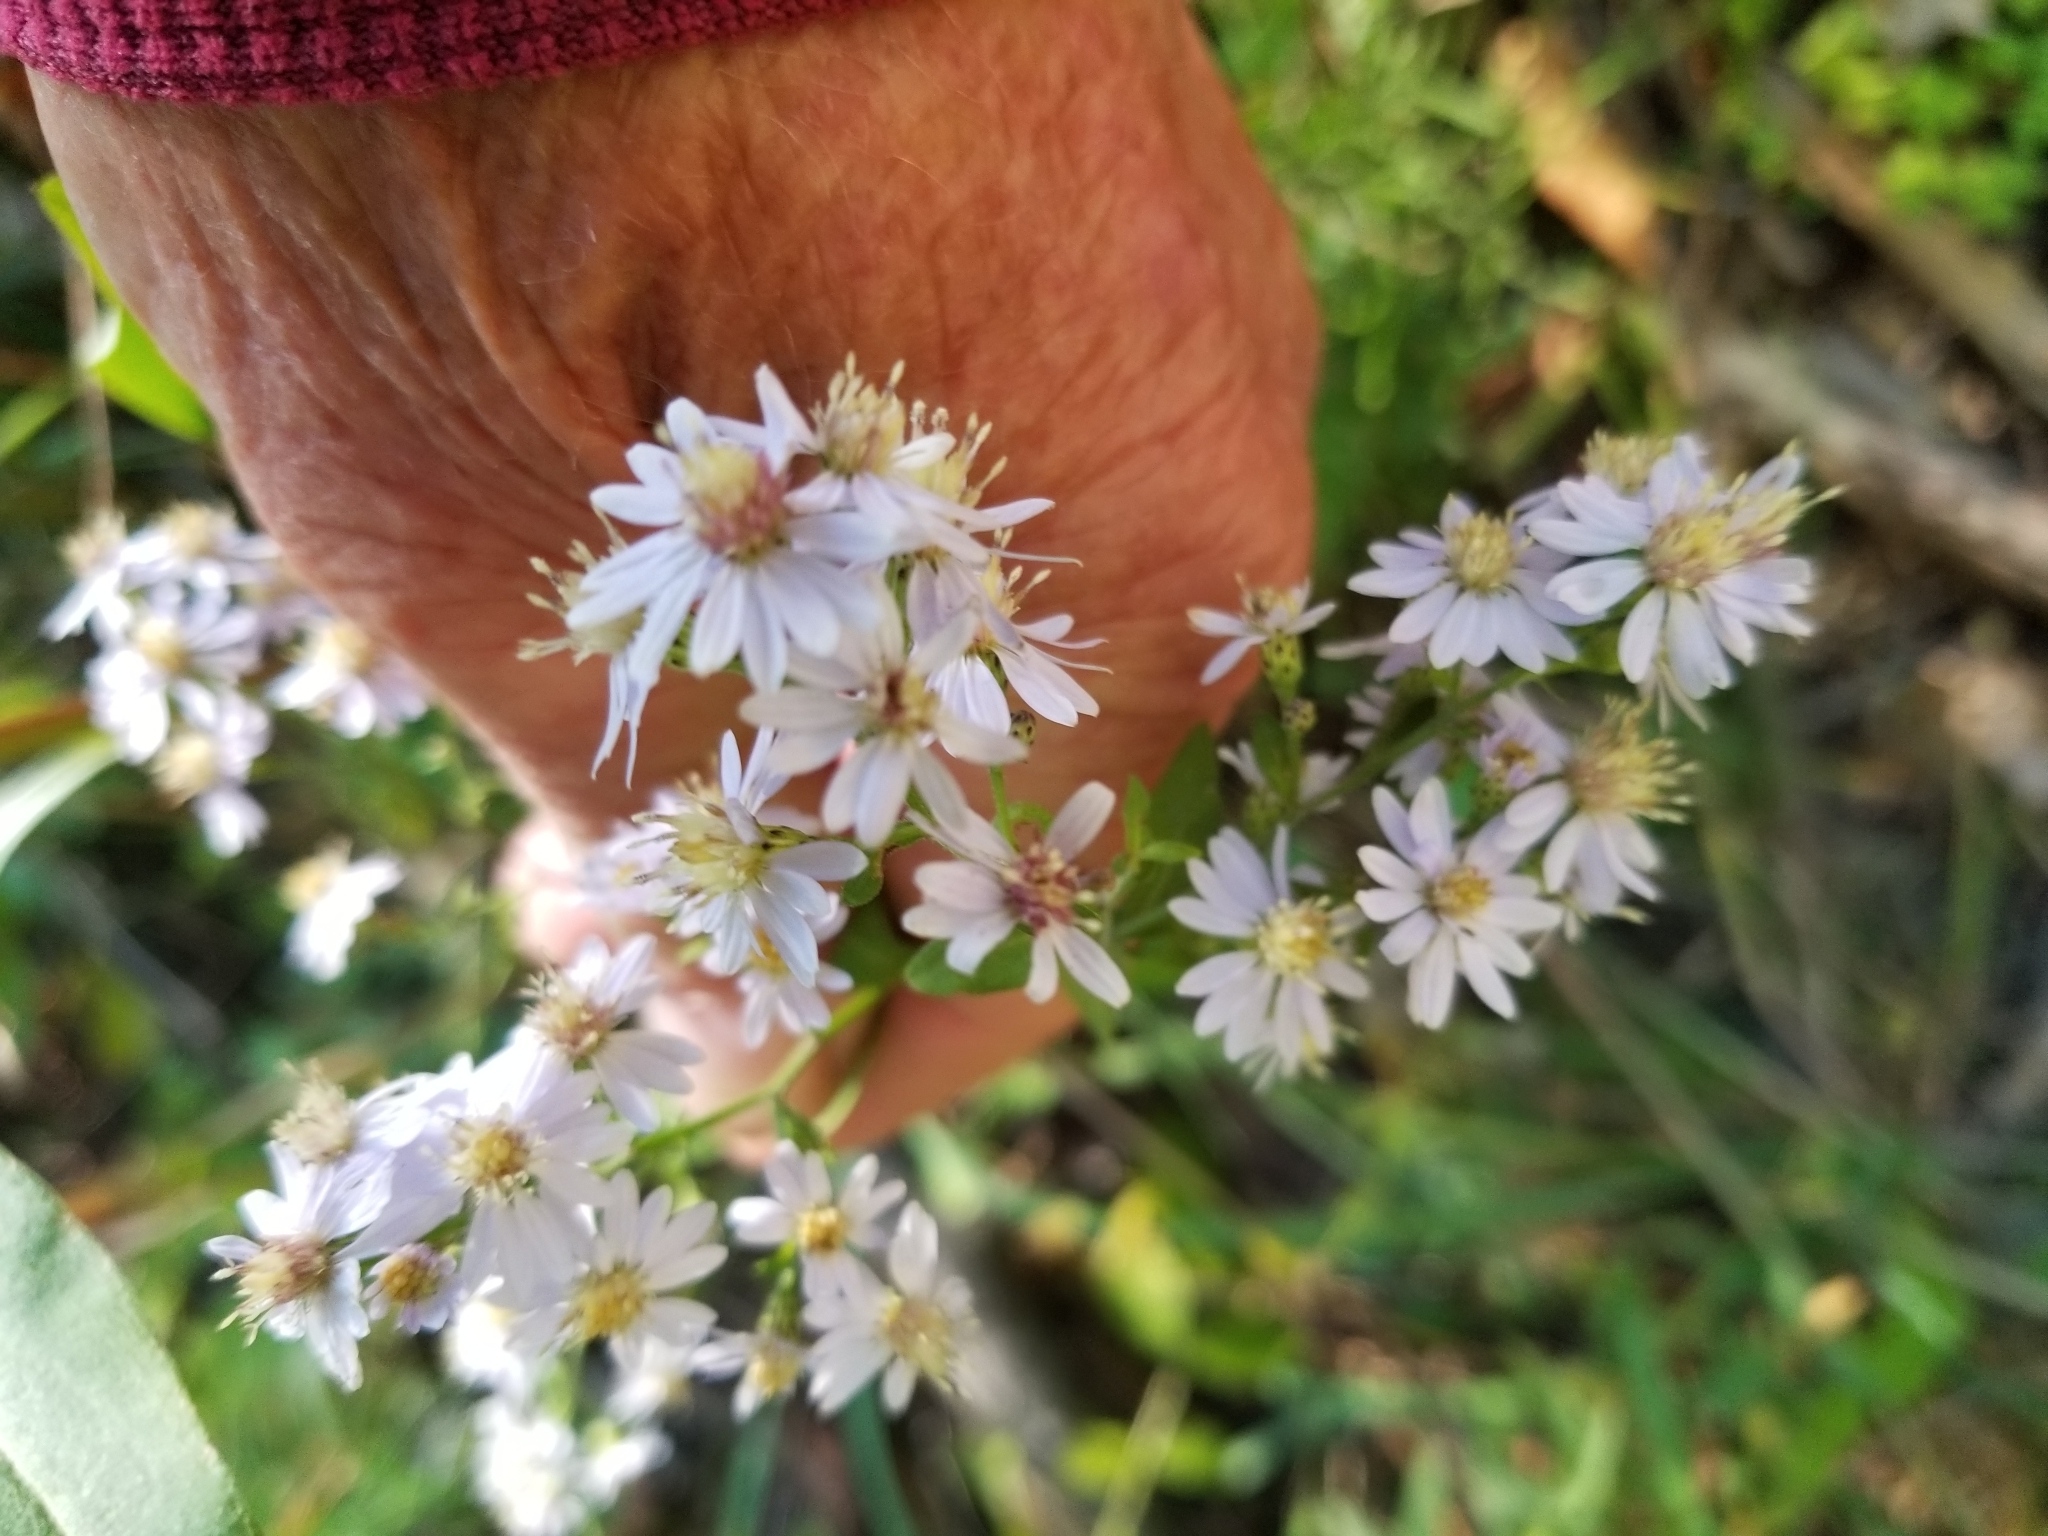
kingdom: Plantae
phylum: Tracheophyta
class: Magnoliopsida
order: Asterales
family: Asteraceae
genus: Symphyotrichum
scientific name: Symphyotrichum cordifolium
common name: Beeweed
